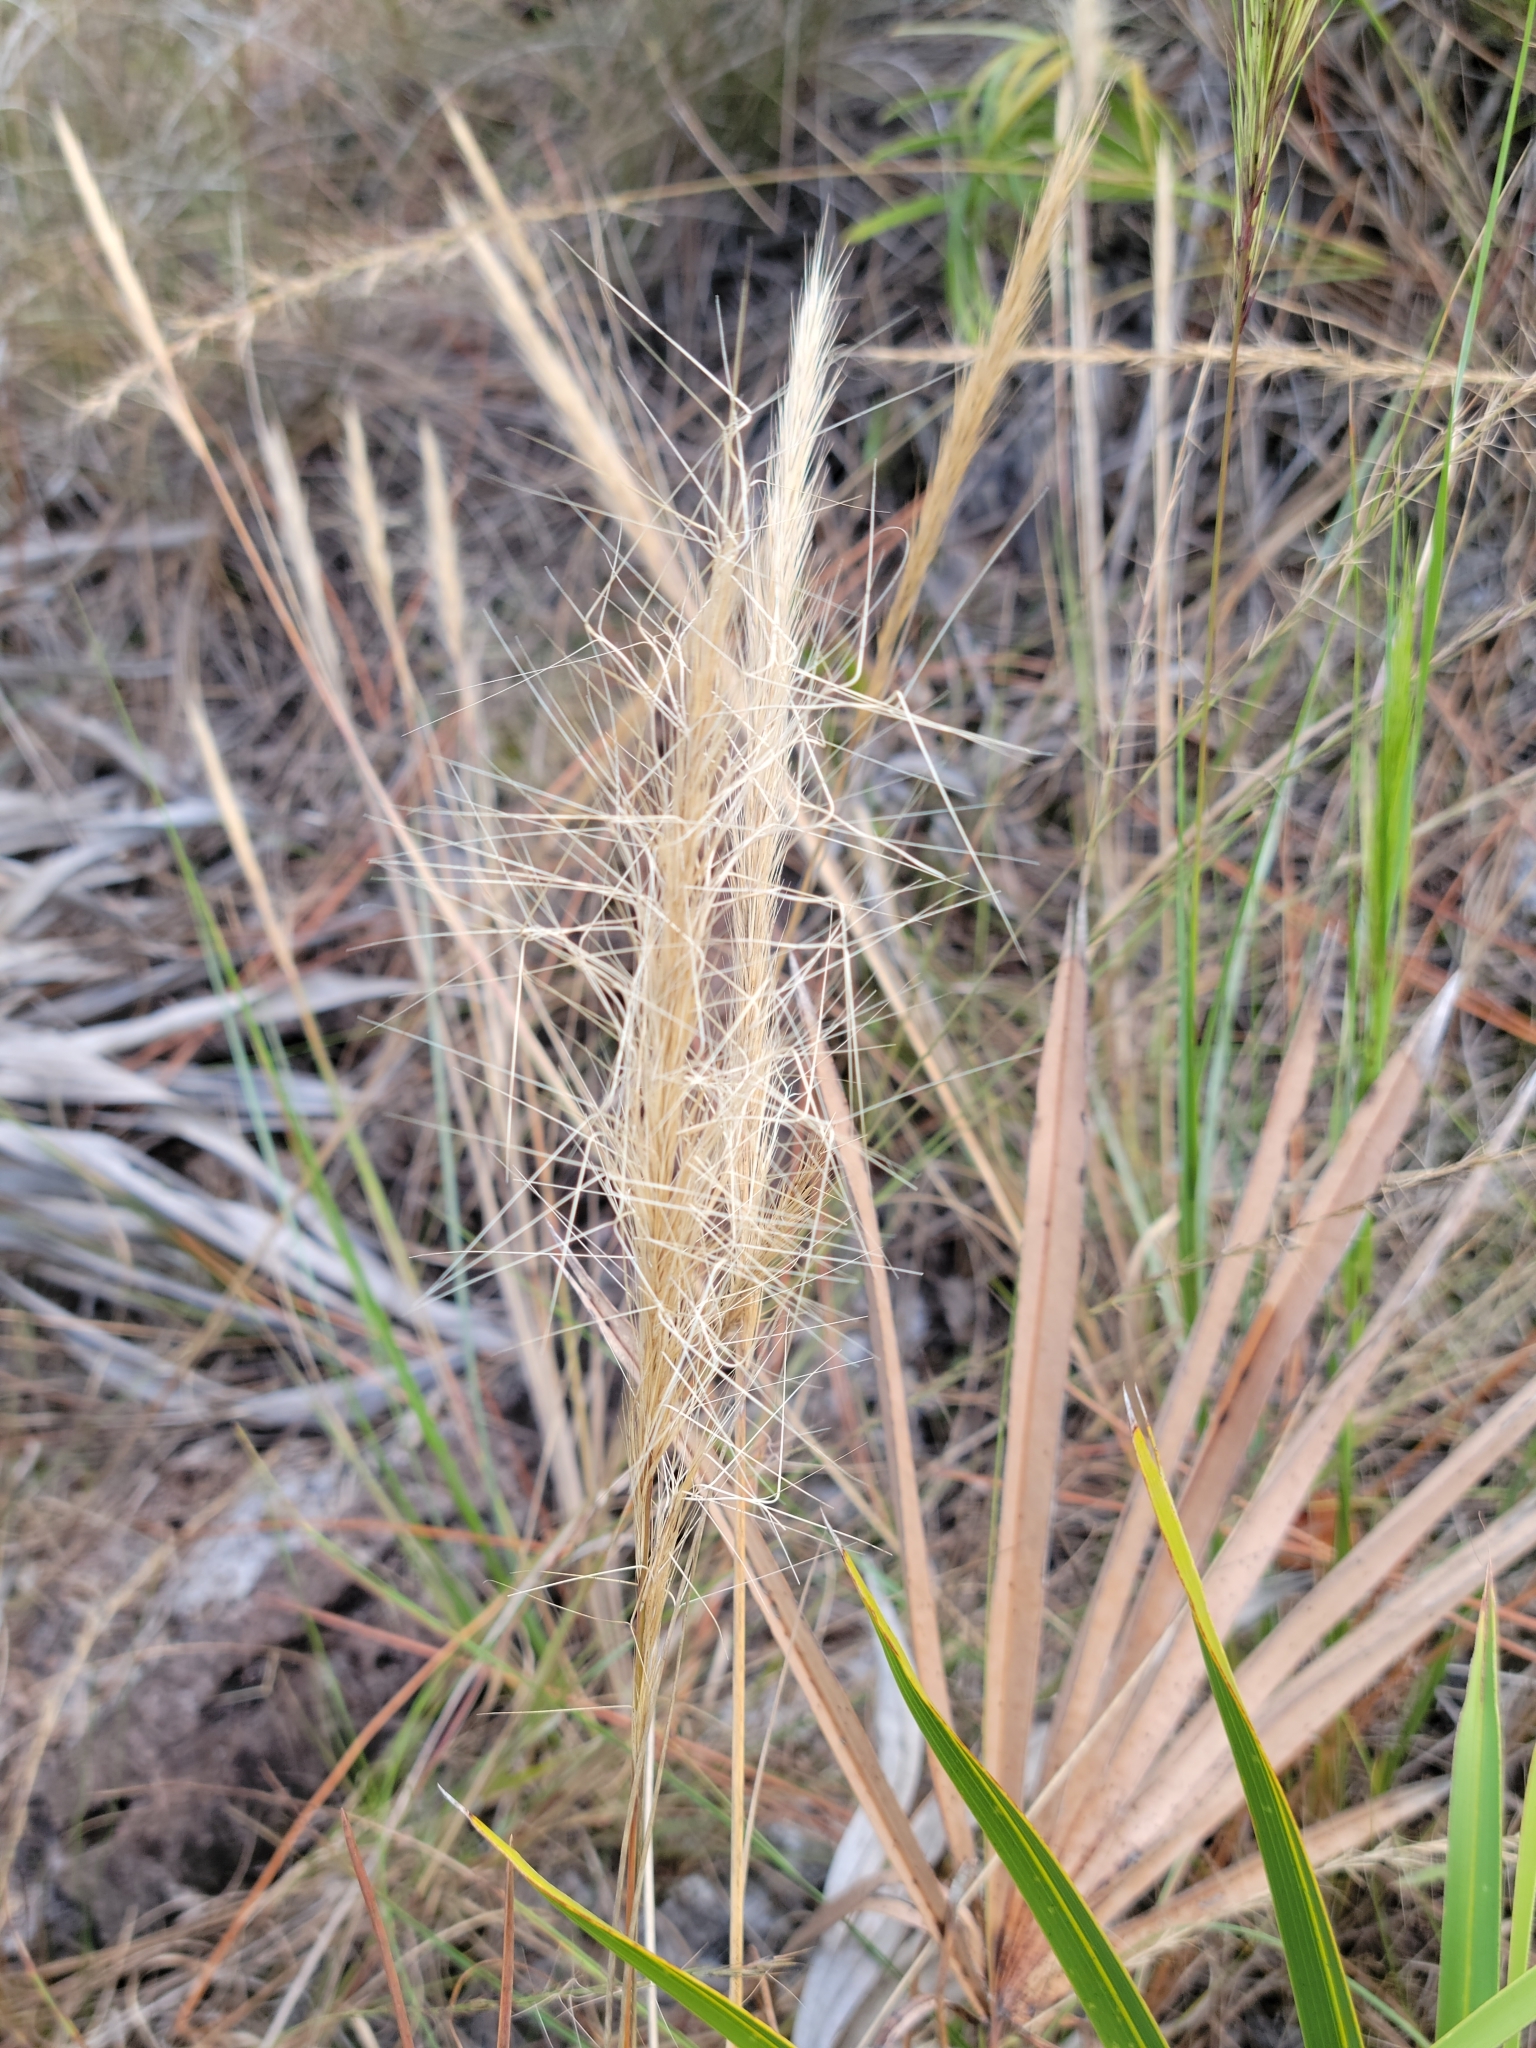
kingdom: Plantae
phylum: Tracheophyta
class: Liliopsida
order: Poales
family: Poaceae
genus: Aristida
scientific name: Aristida spiciformis
